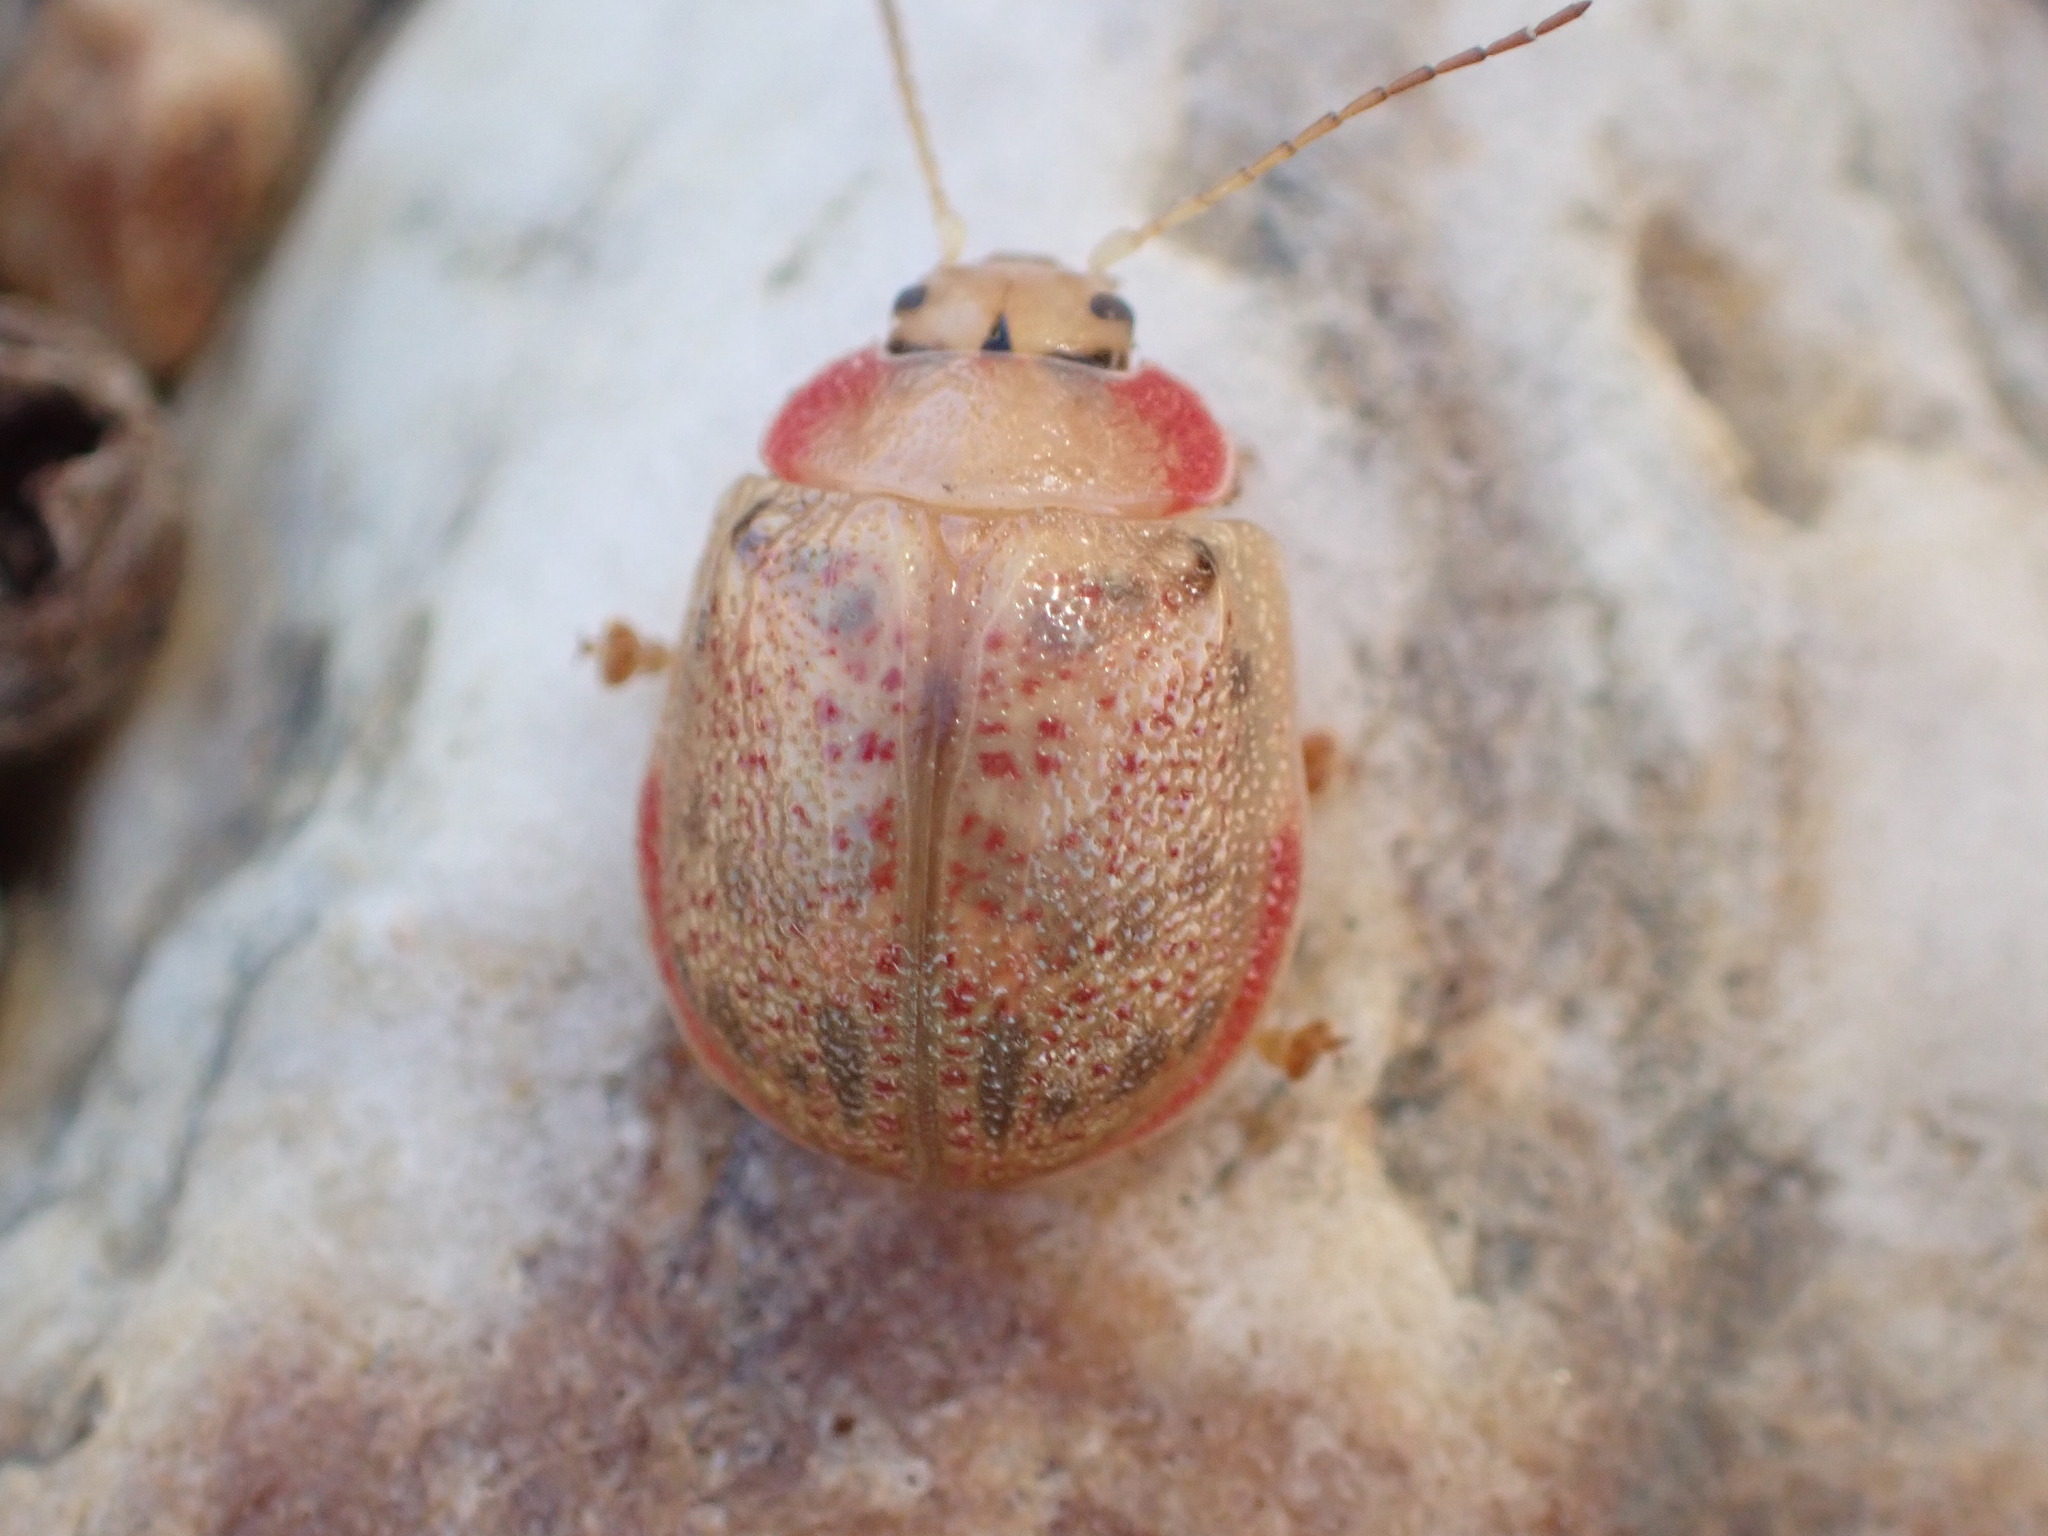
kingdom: Animalia
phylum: Arthropoda
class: Insecta
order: Coleoptera
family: Chrysomelidae
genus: Paropsis
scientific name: Paropsis charybdis
